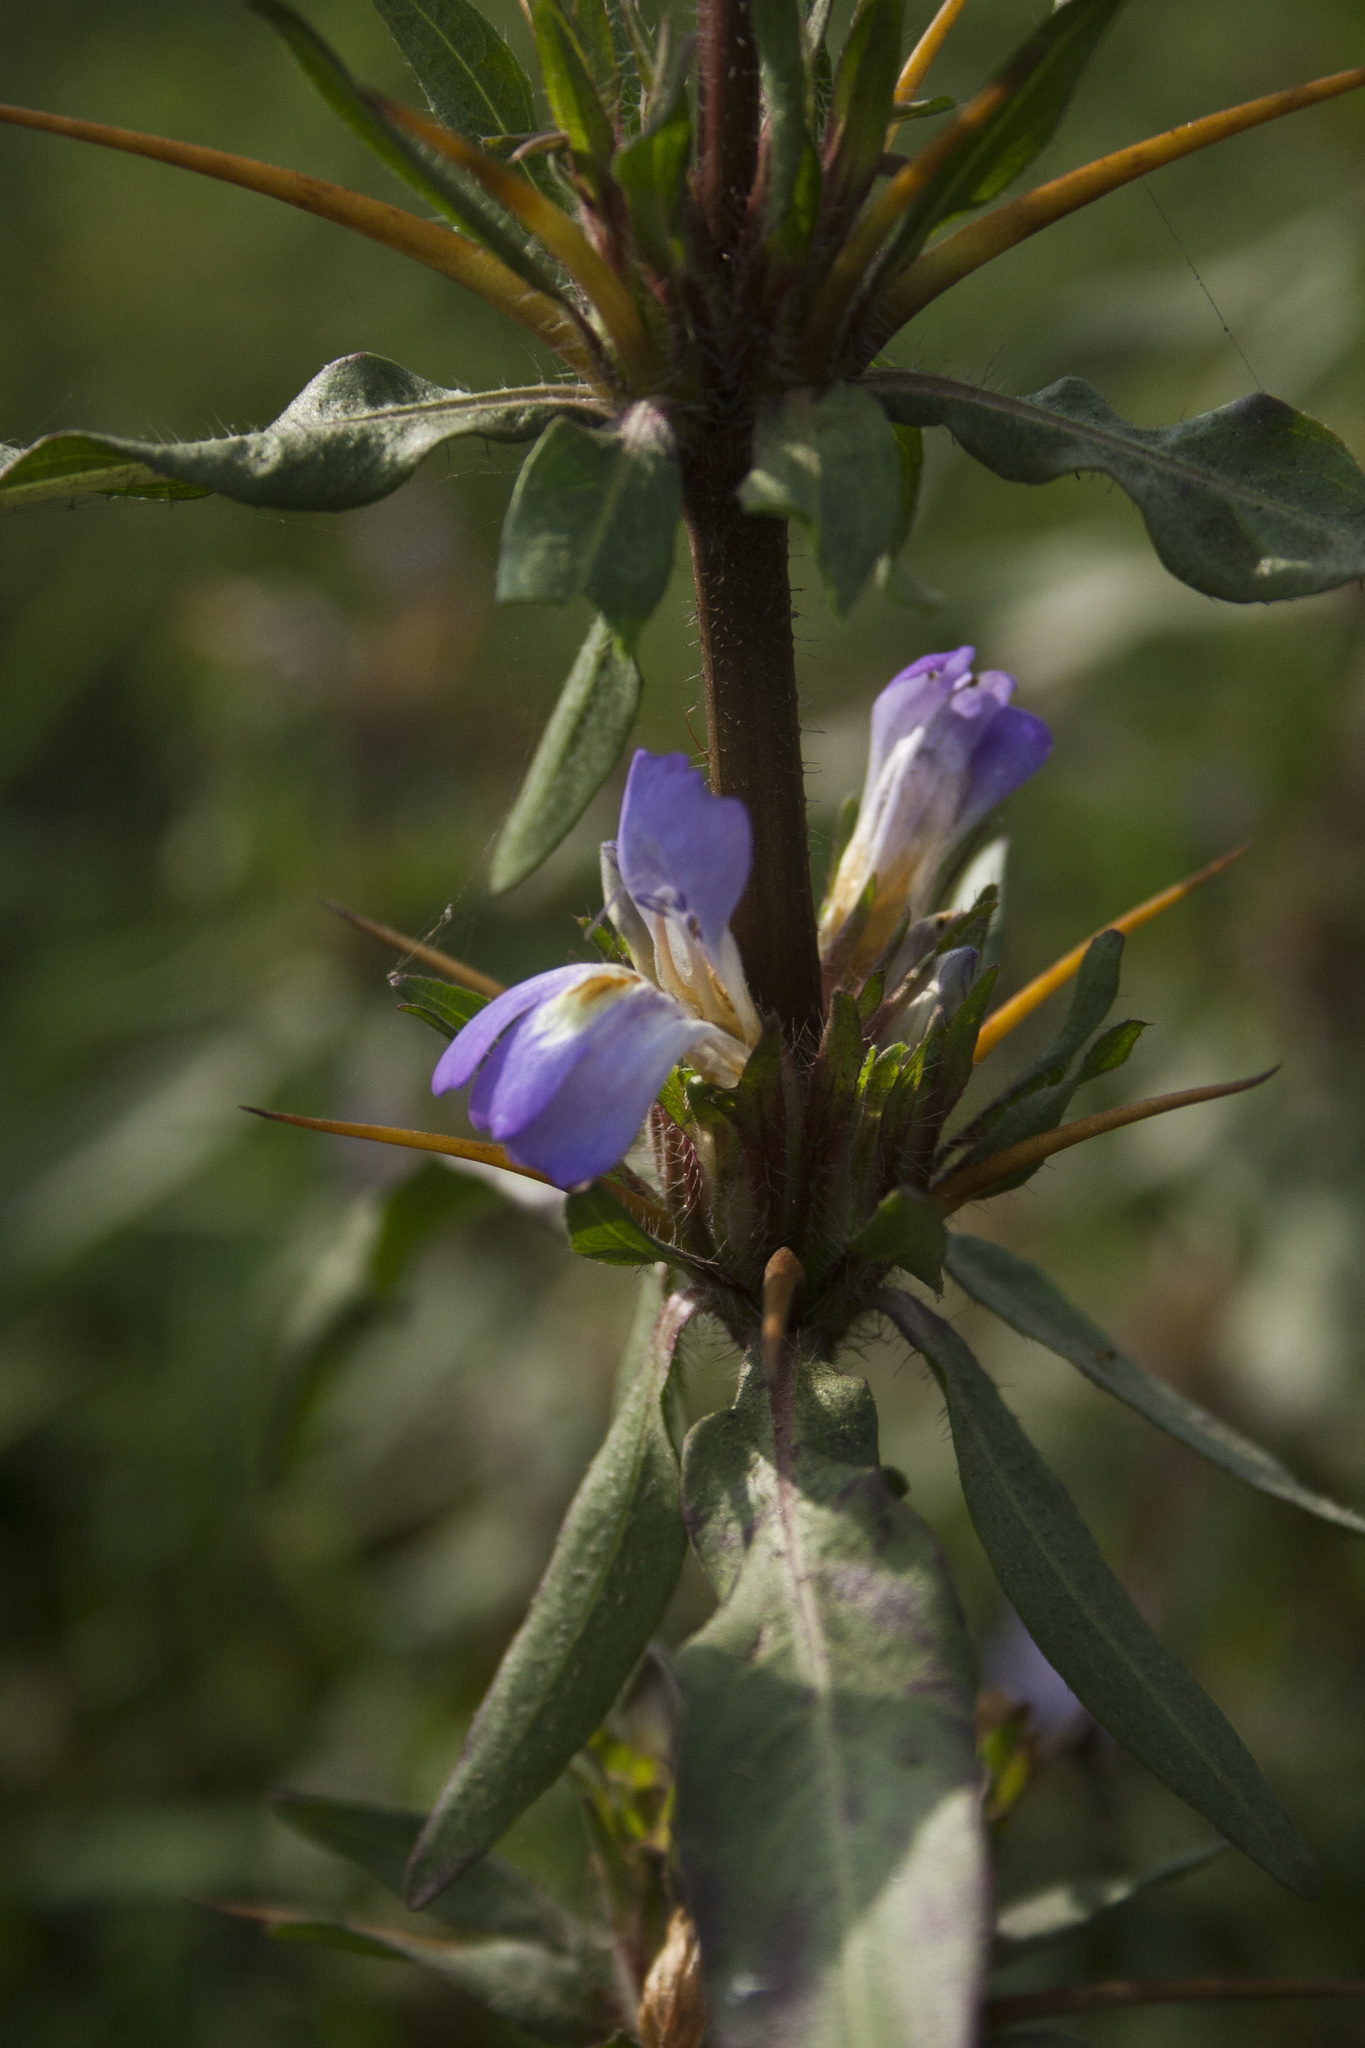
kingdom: Plantae
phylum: Tracheophyta
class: Magnoliopsida
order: Lamiales
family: Acanthaceae
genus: Hygrophila
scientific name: Hygrophila auriculata
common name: Hygrophila
